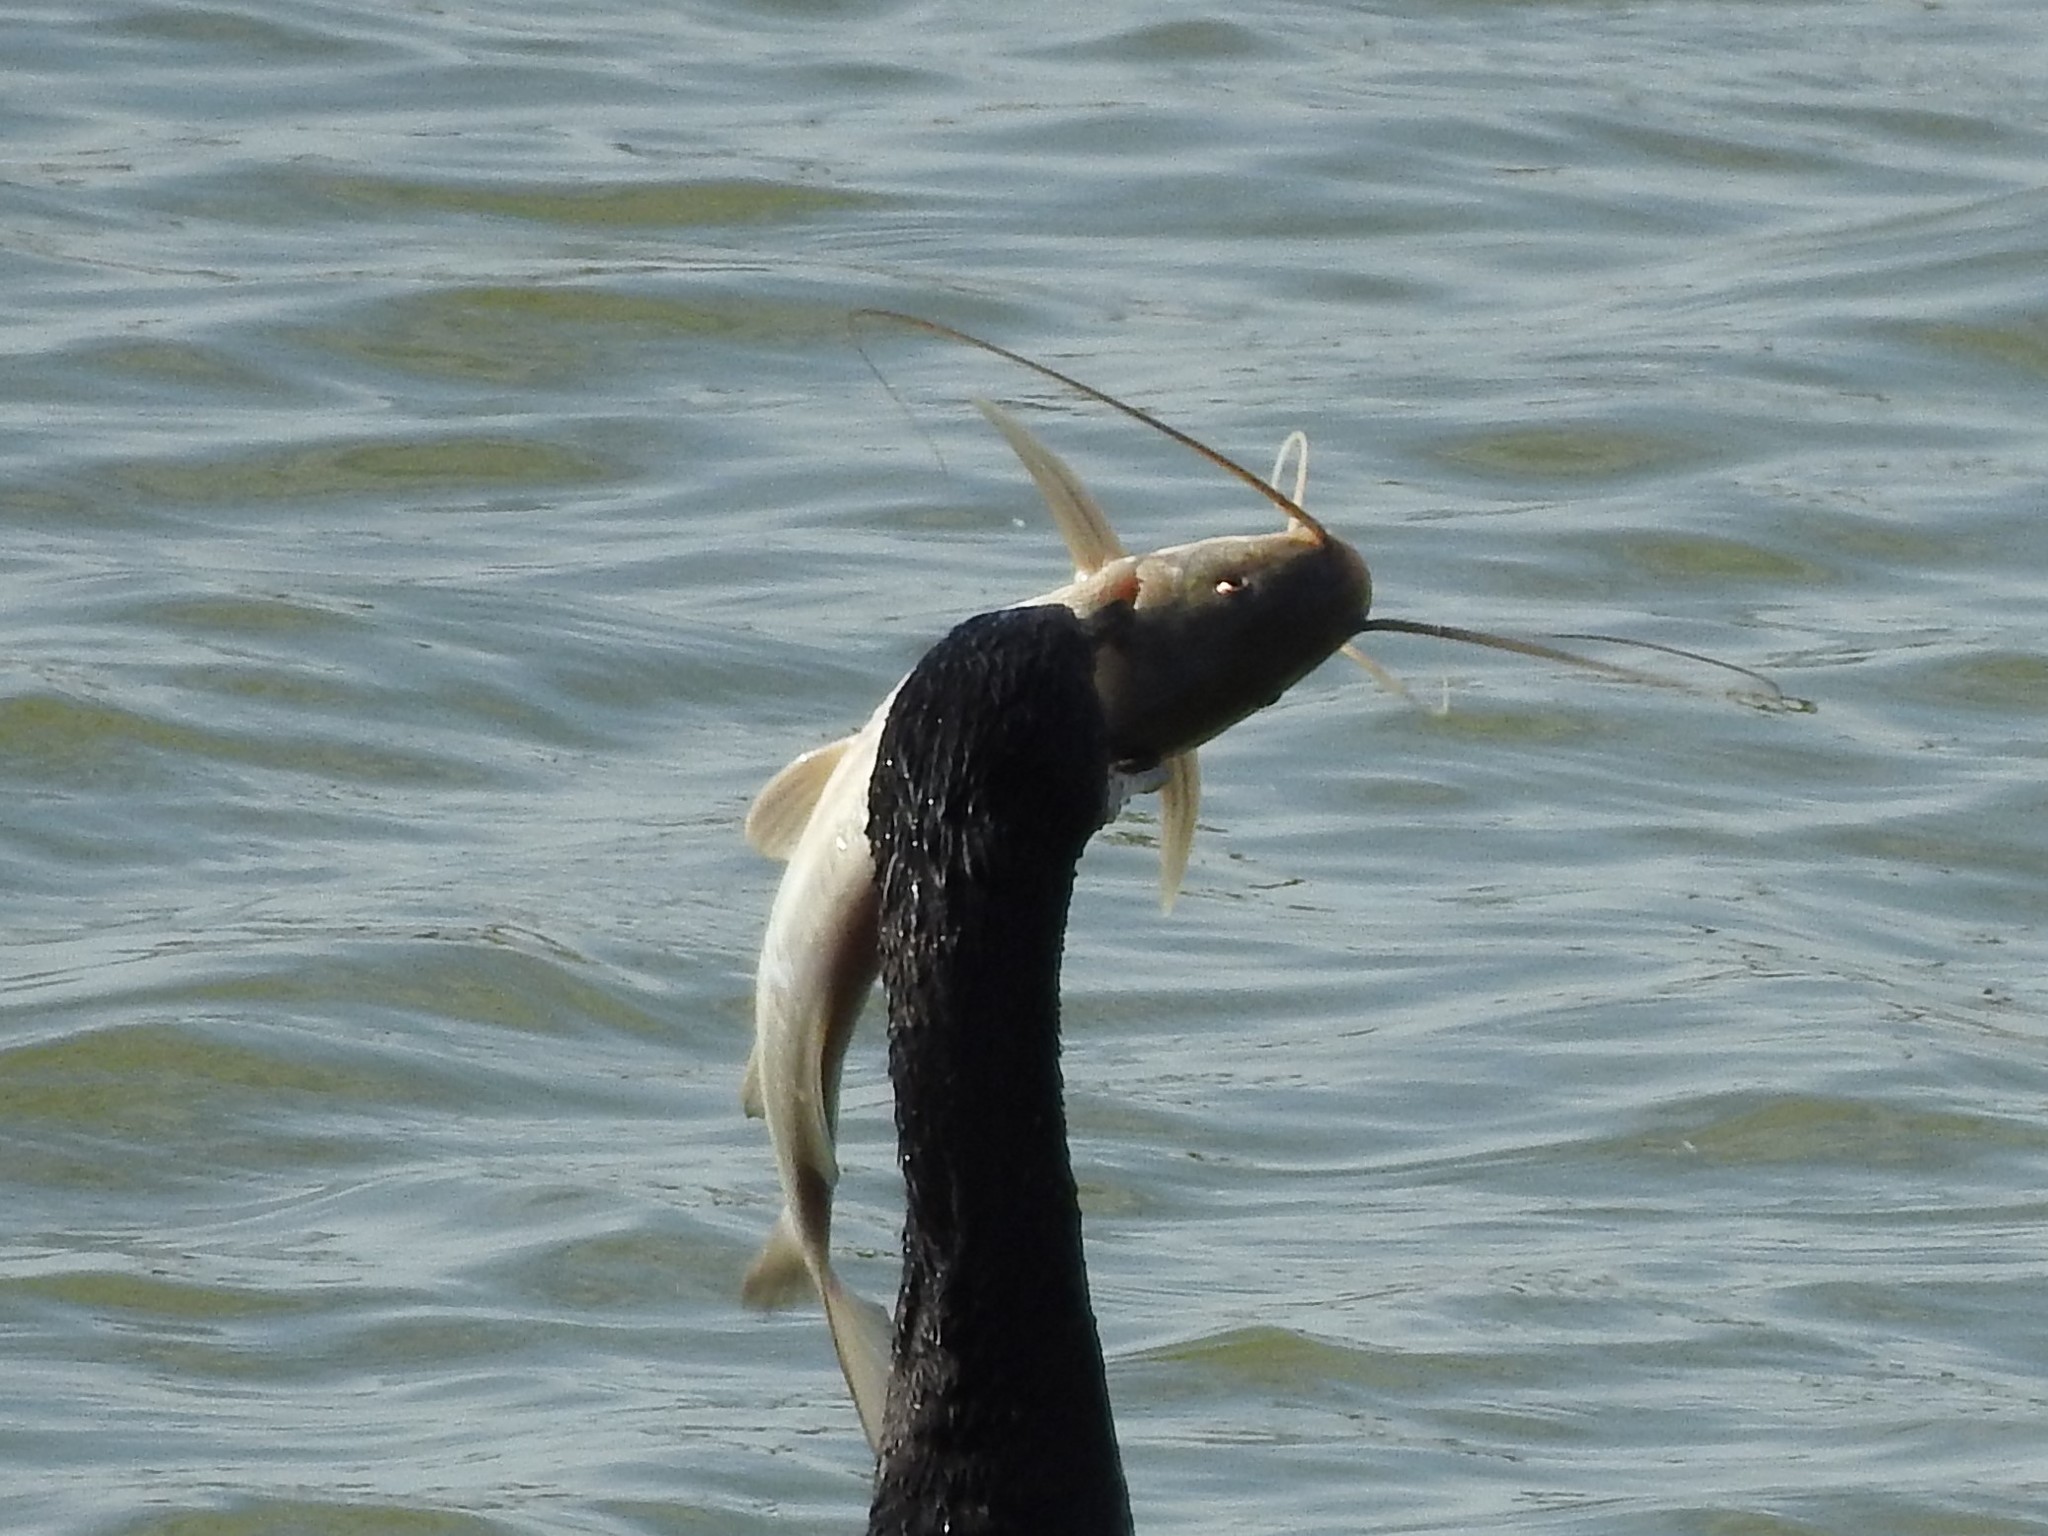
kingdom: Animalia
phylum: Chordata
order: Siluriformes
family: Pimelodidae
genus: Pimelodus
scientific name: Pimelodus albicans
